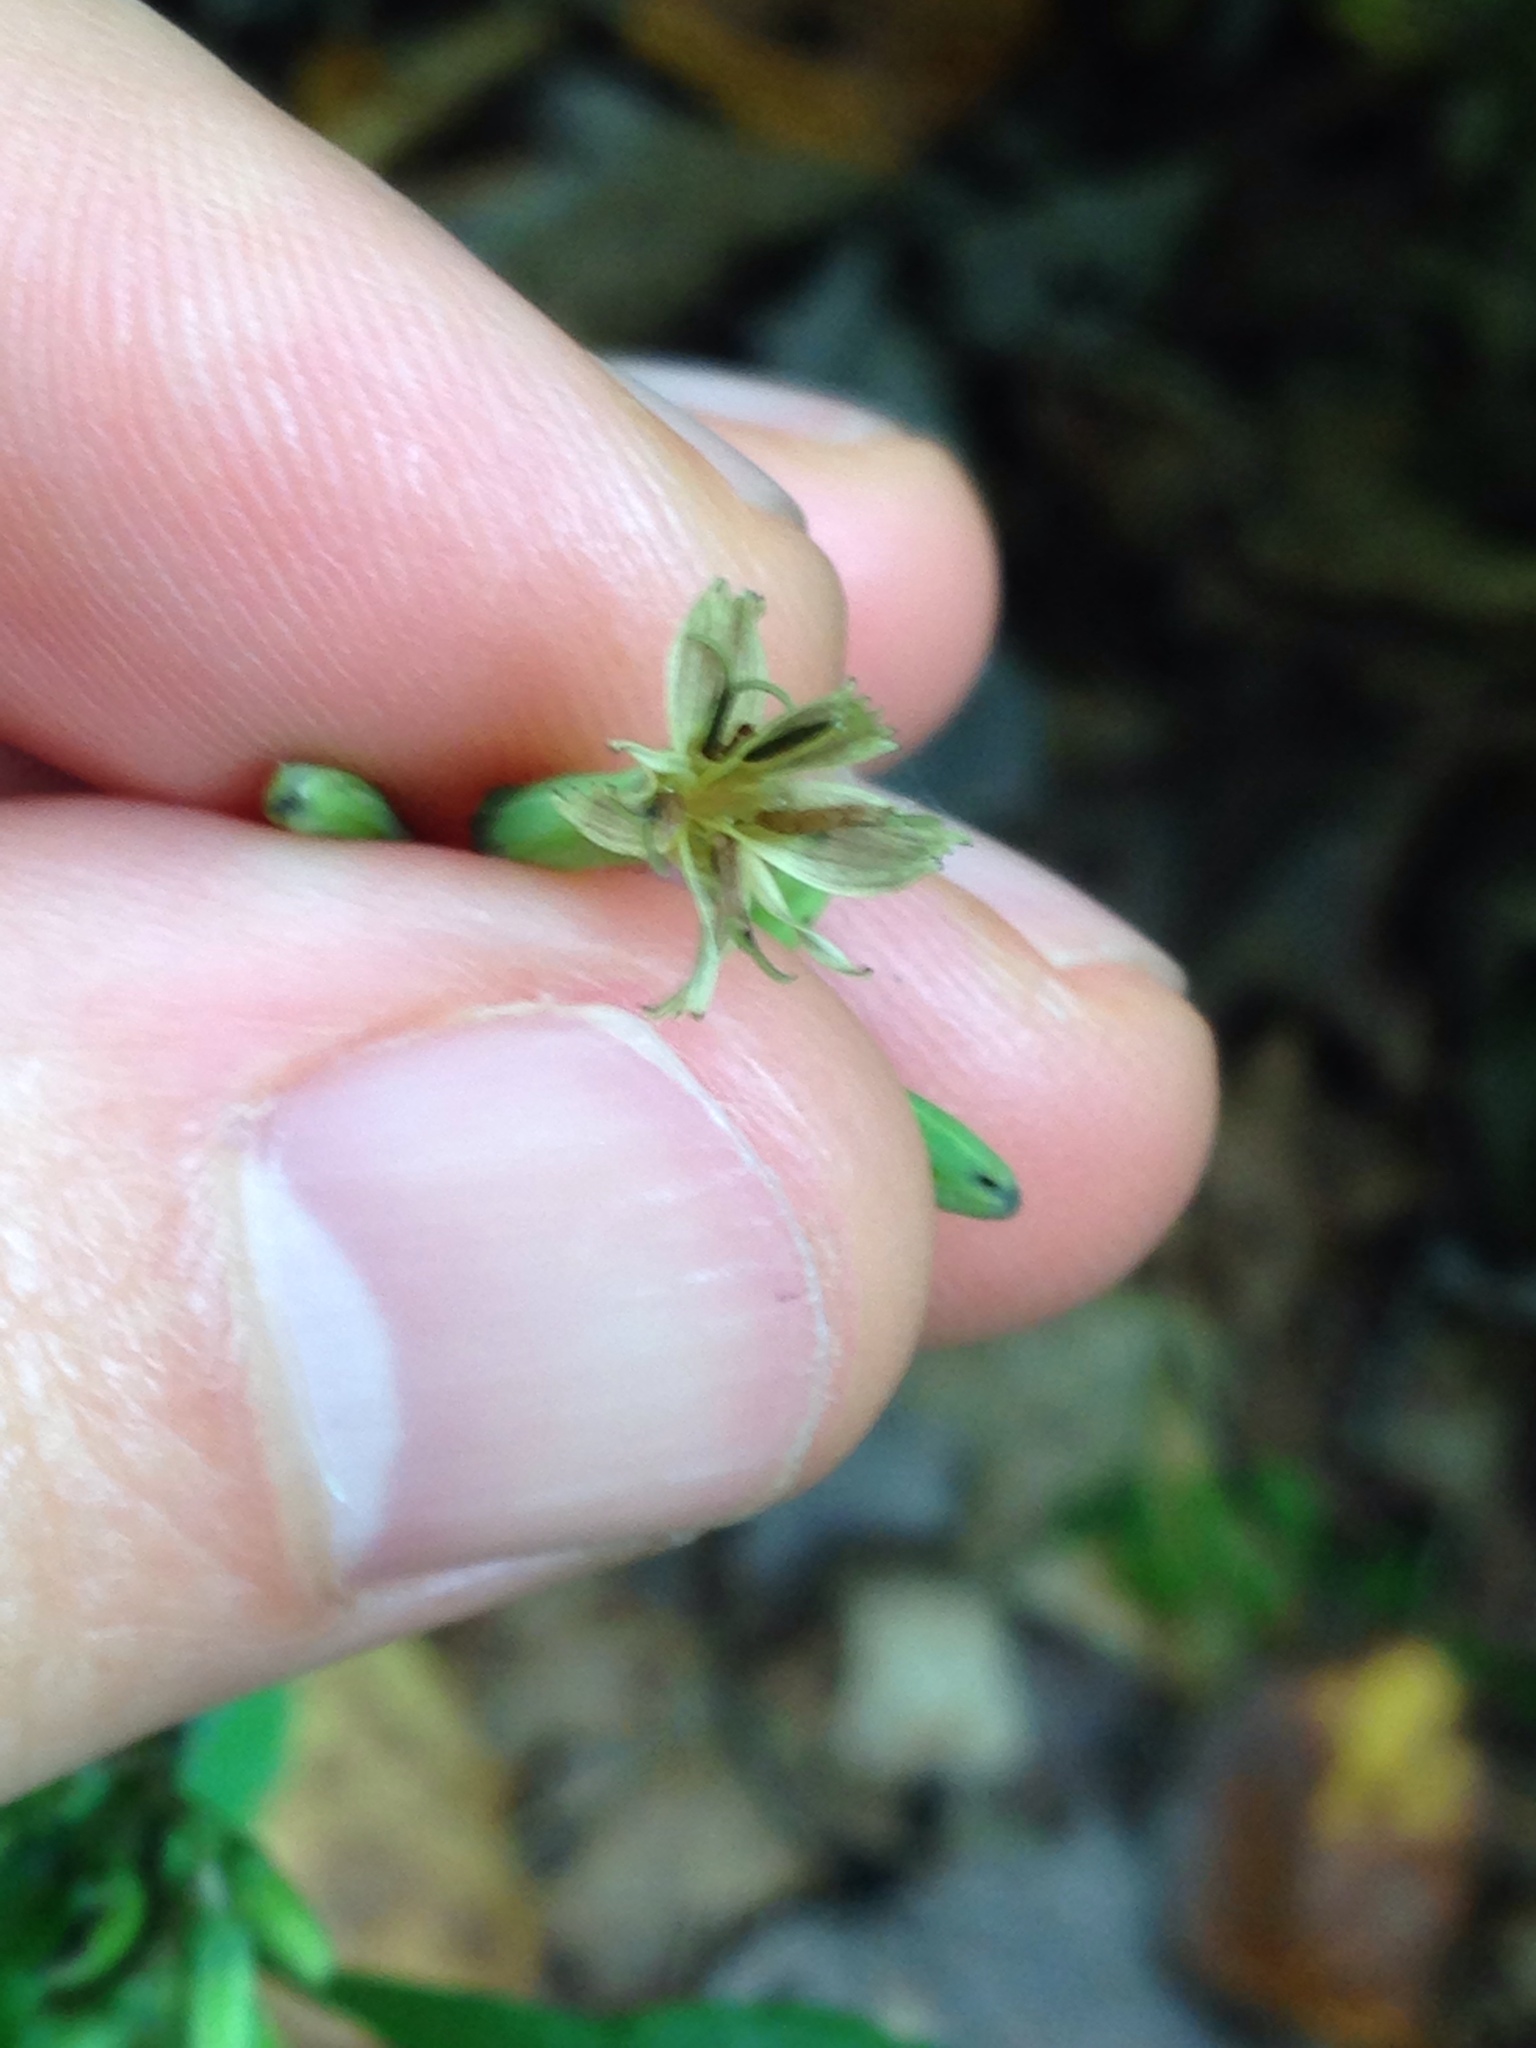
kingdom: Plantae
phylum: Tracheophyta
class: Magnoliopsida
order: Asterales
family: Asteraceae
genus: Nabalus
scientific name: Nabalus altissima
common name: Tall rattlesnakeroot
